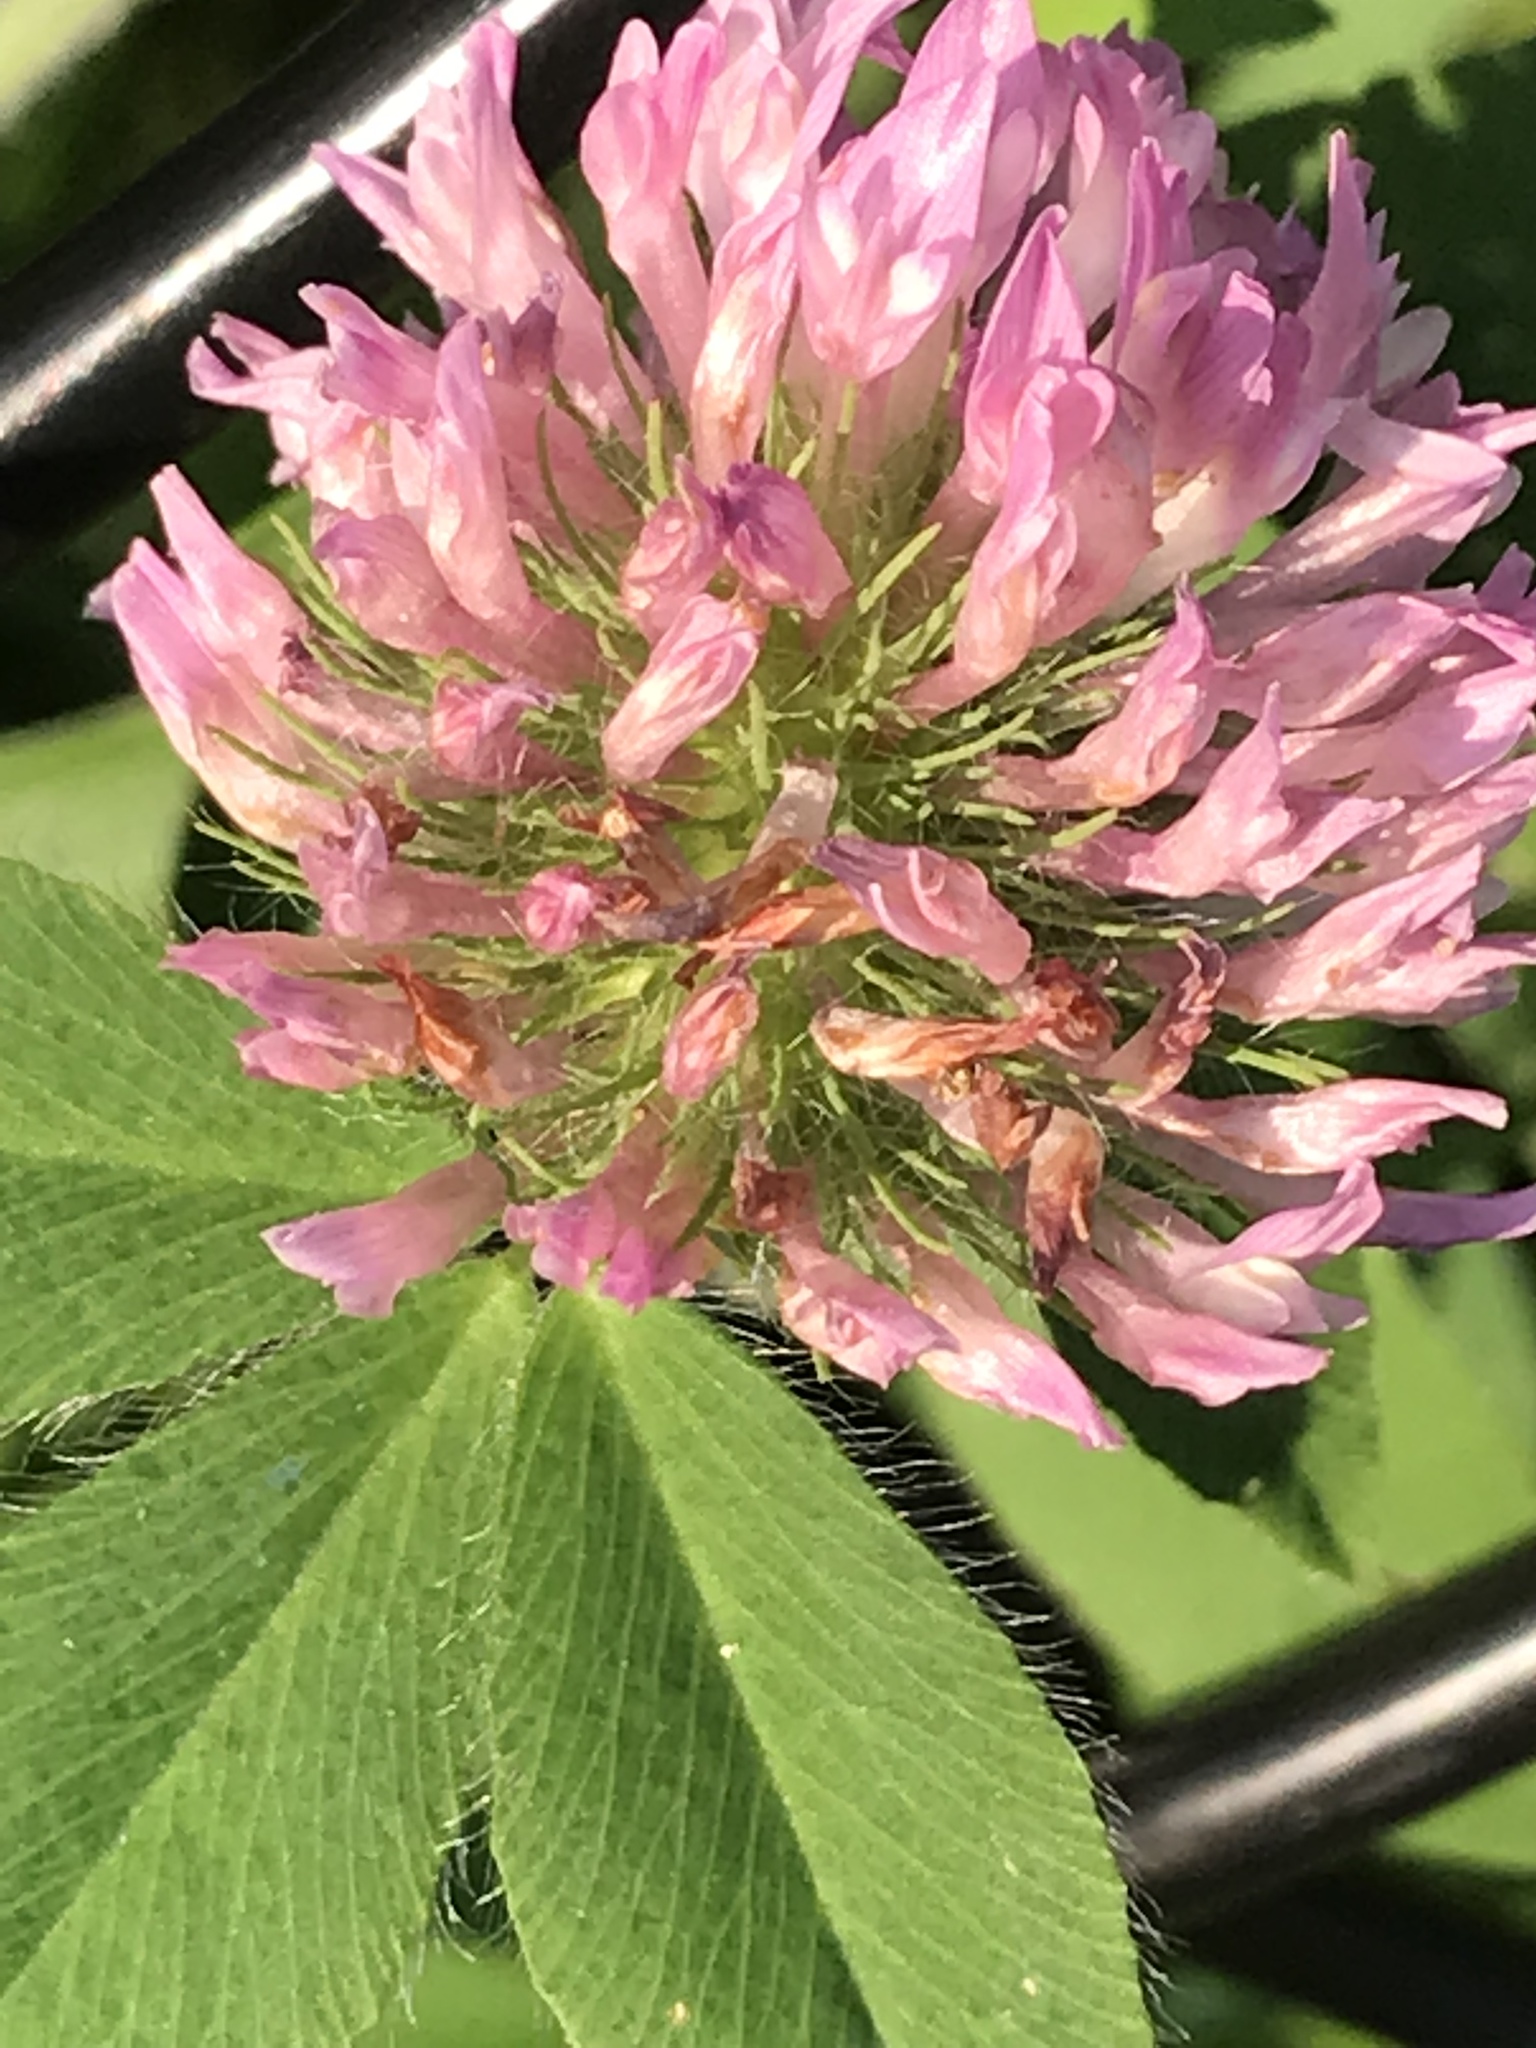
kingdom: Plantae
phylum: Tracheophyta
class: Magnoliopsida
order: Fabales
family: Fabaceae
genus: Trifolium
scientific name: Trifolium pratense
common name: Red clover
